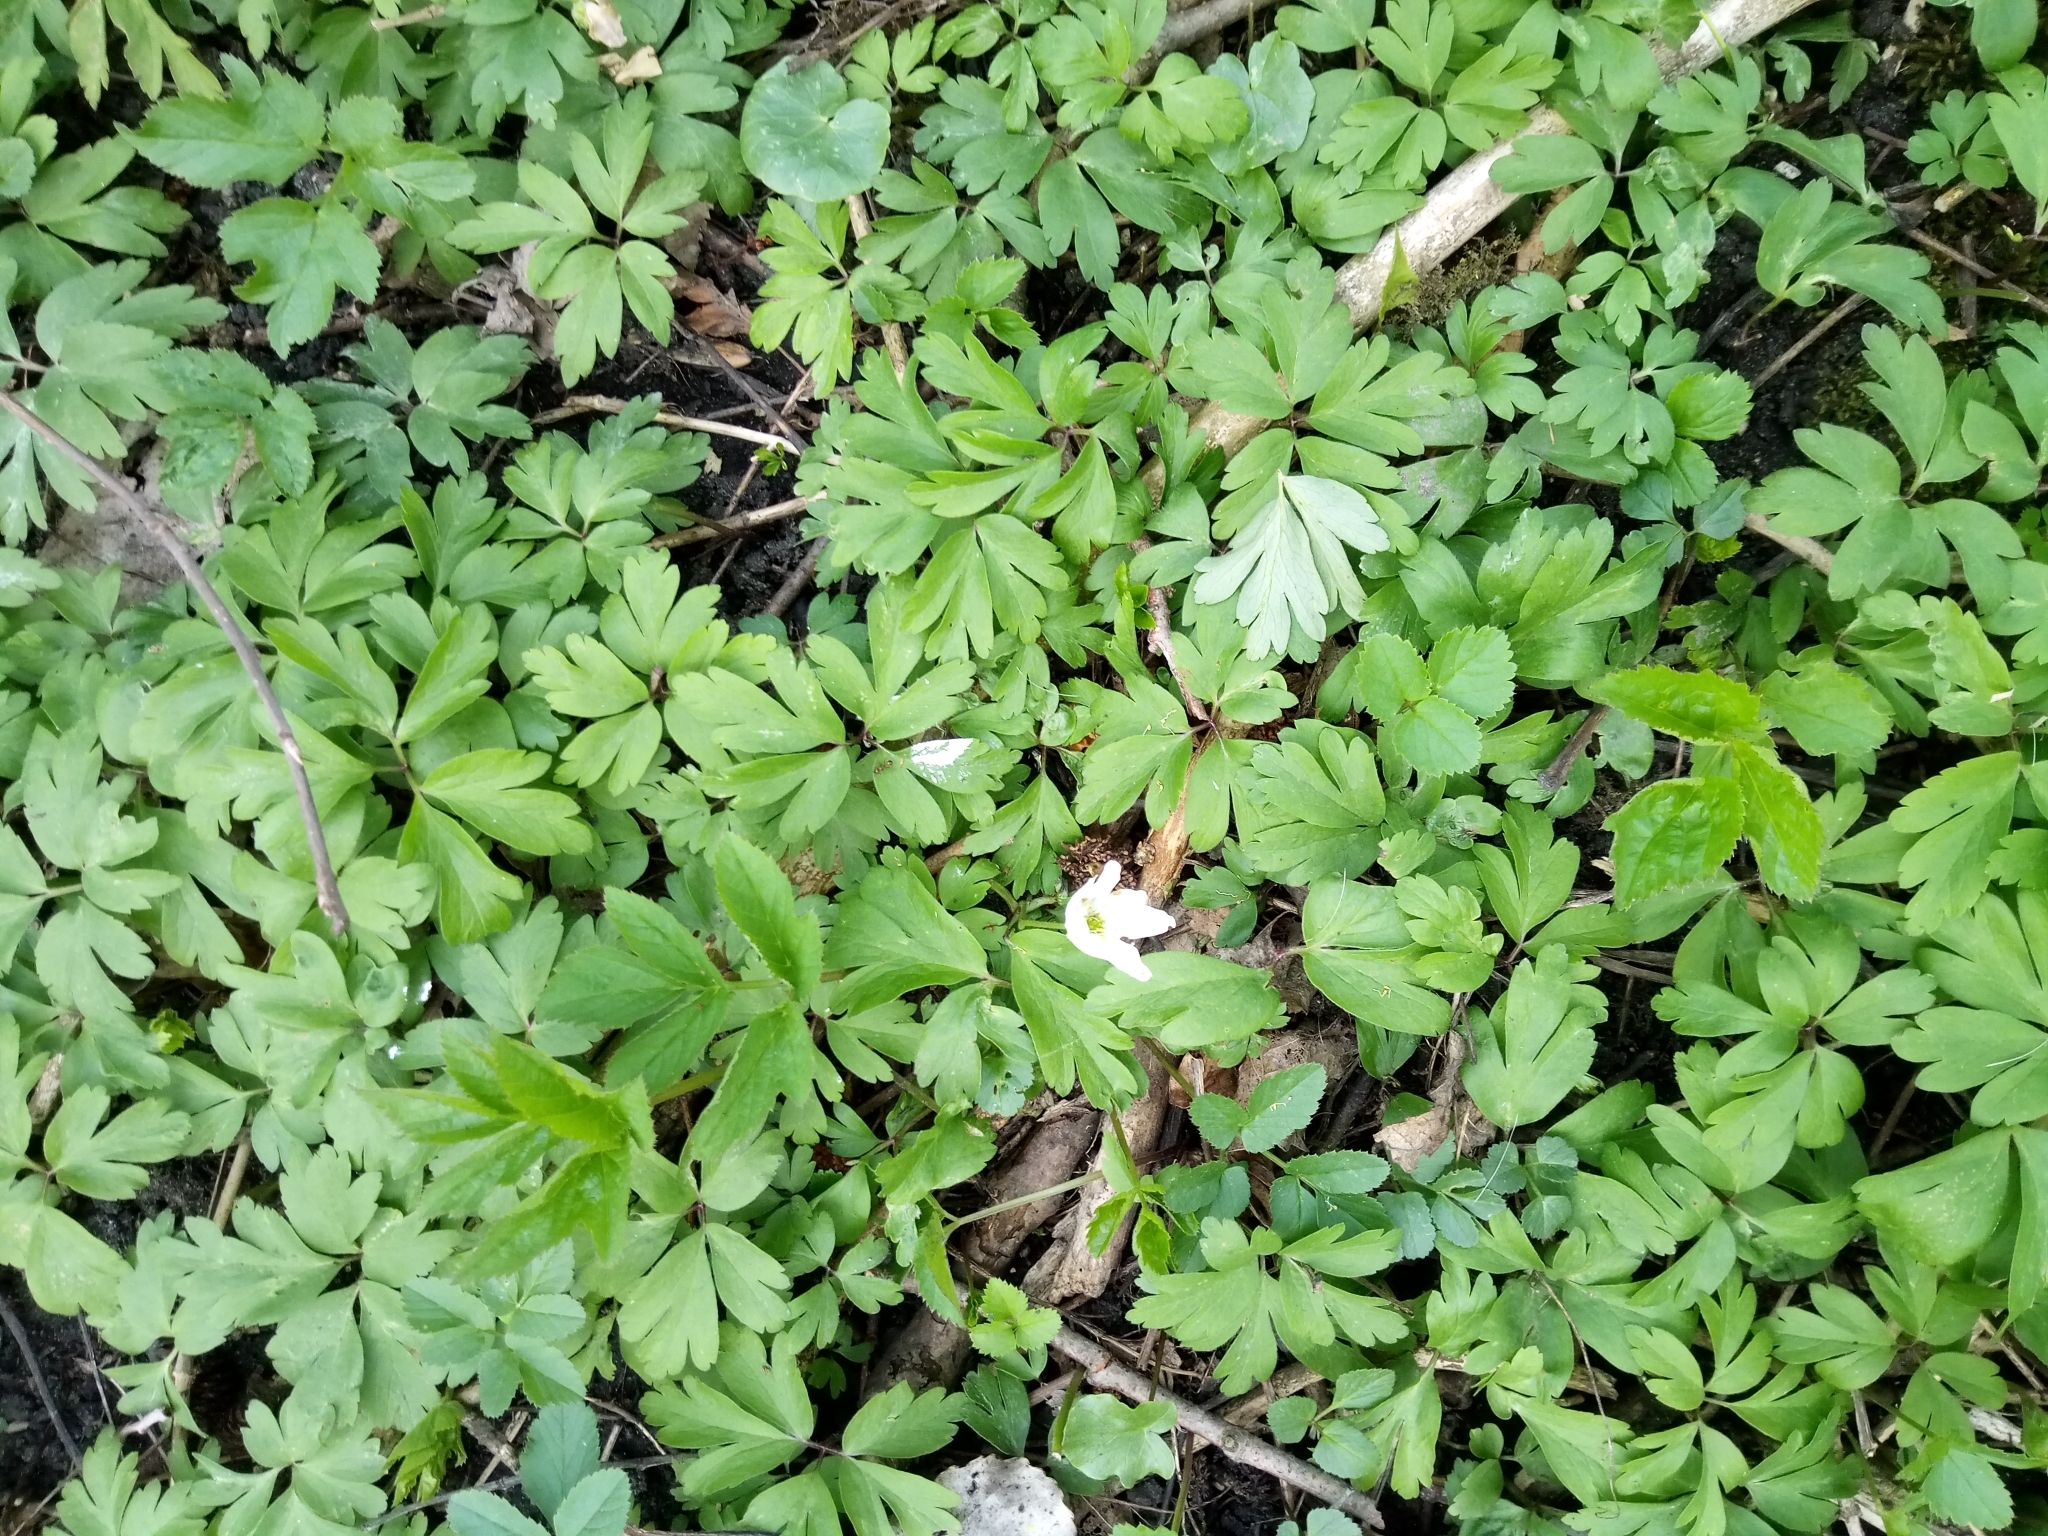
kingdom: Plantae
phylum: Tracheophyta
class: Magnoliopsida
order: Ranunculales
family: Ranunculaceae
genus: Anemone
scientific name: Anemone nemorosa
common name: Wood anemone
